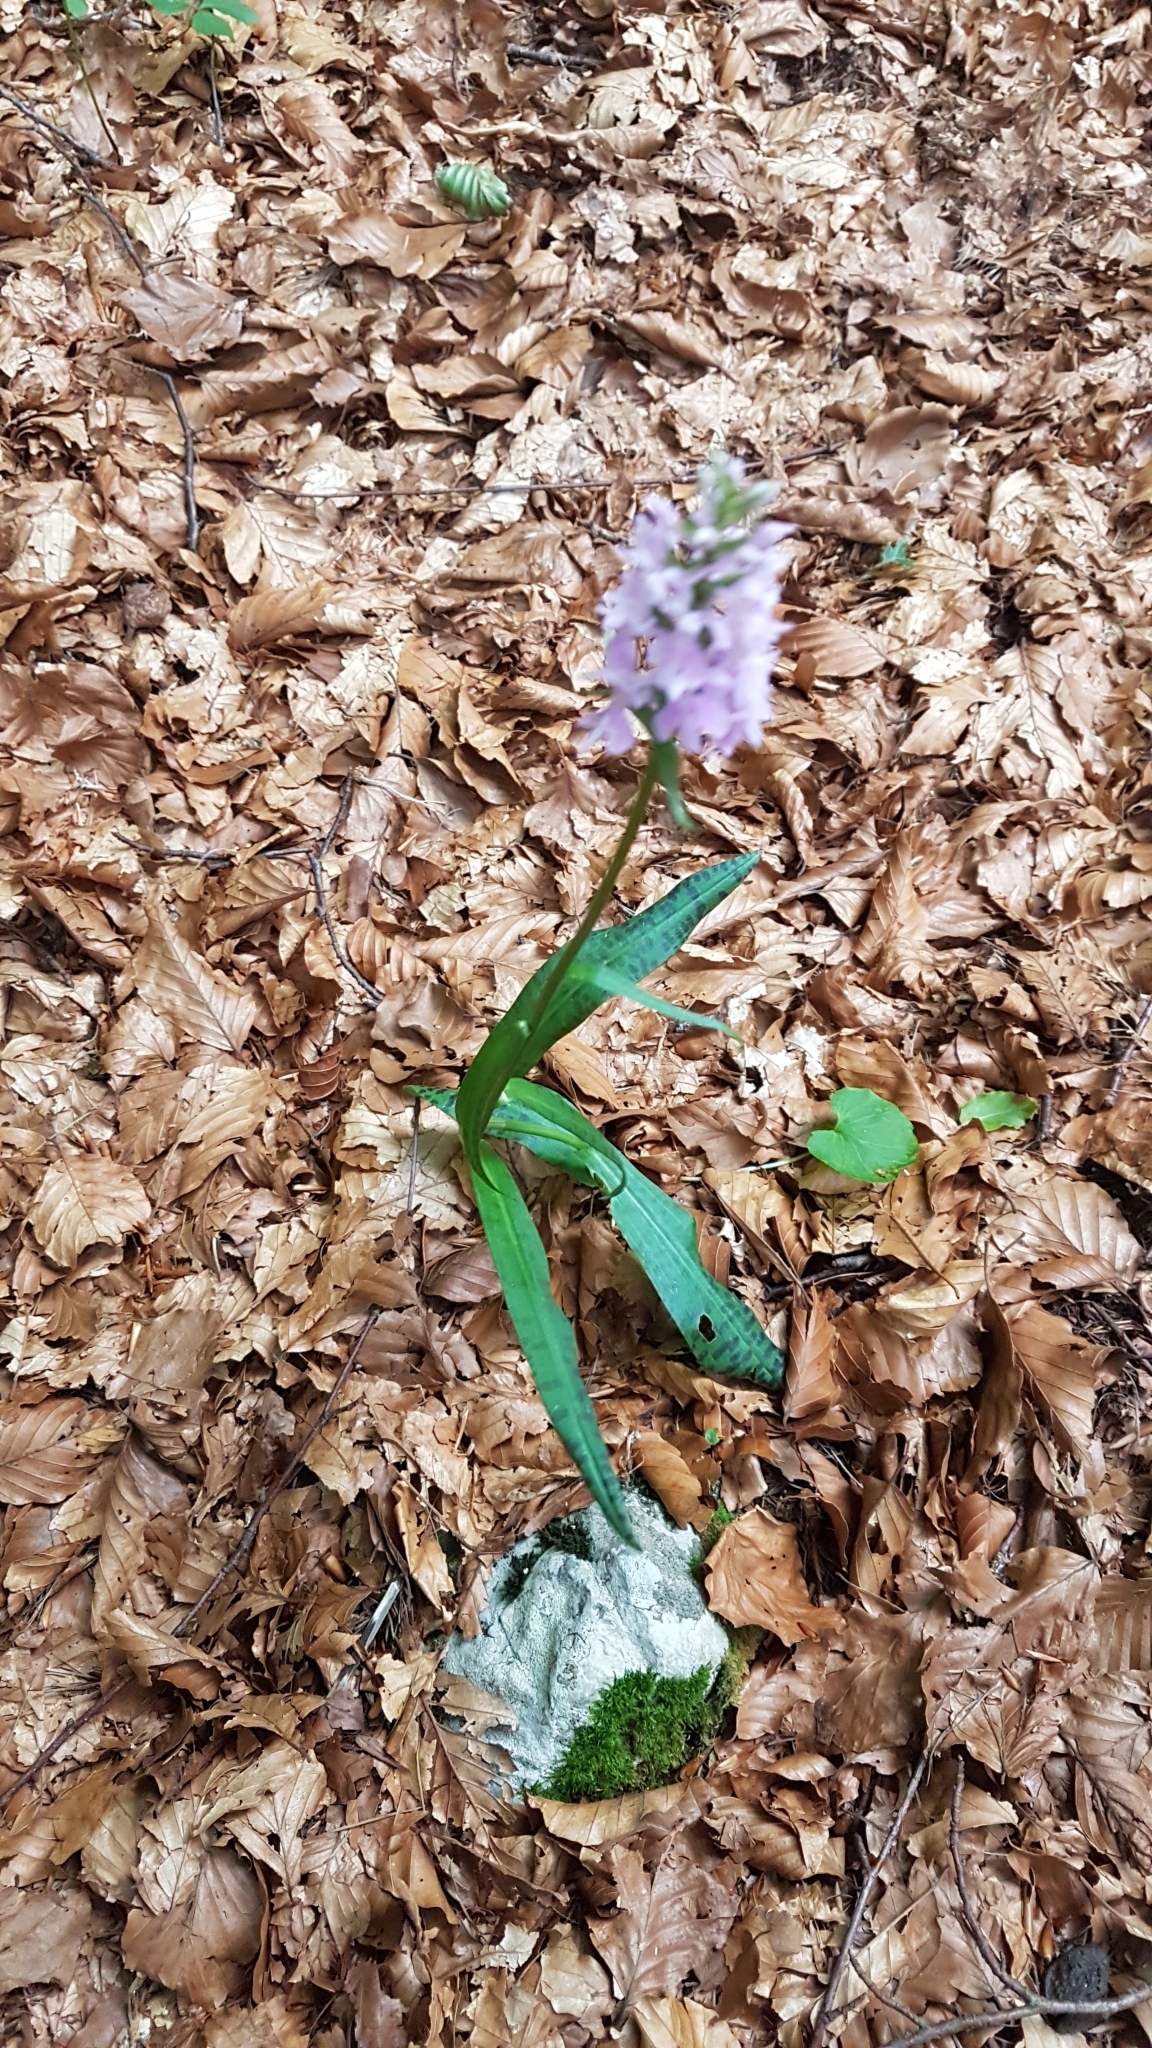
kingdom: Plantae
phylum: Tracheophyta
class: Liliopsida
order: Asparagales
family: Orchidaceae
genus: Dactylorhiza
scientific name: Dactylorhiza maculata
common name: Heath spotted-orchid
